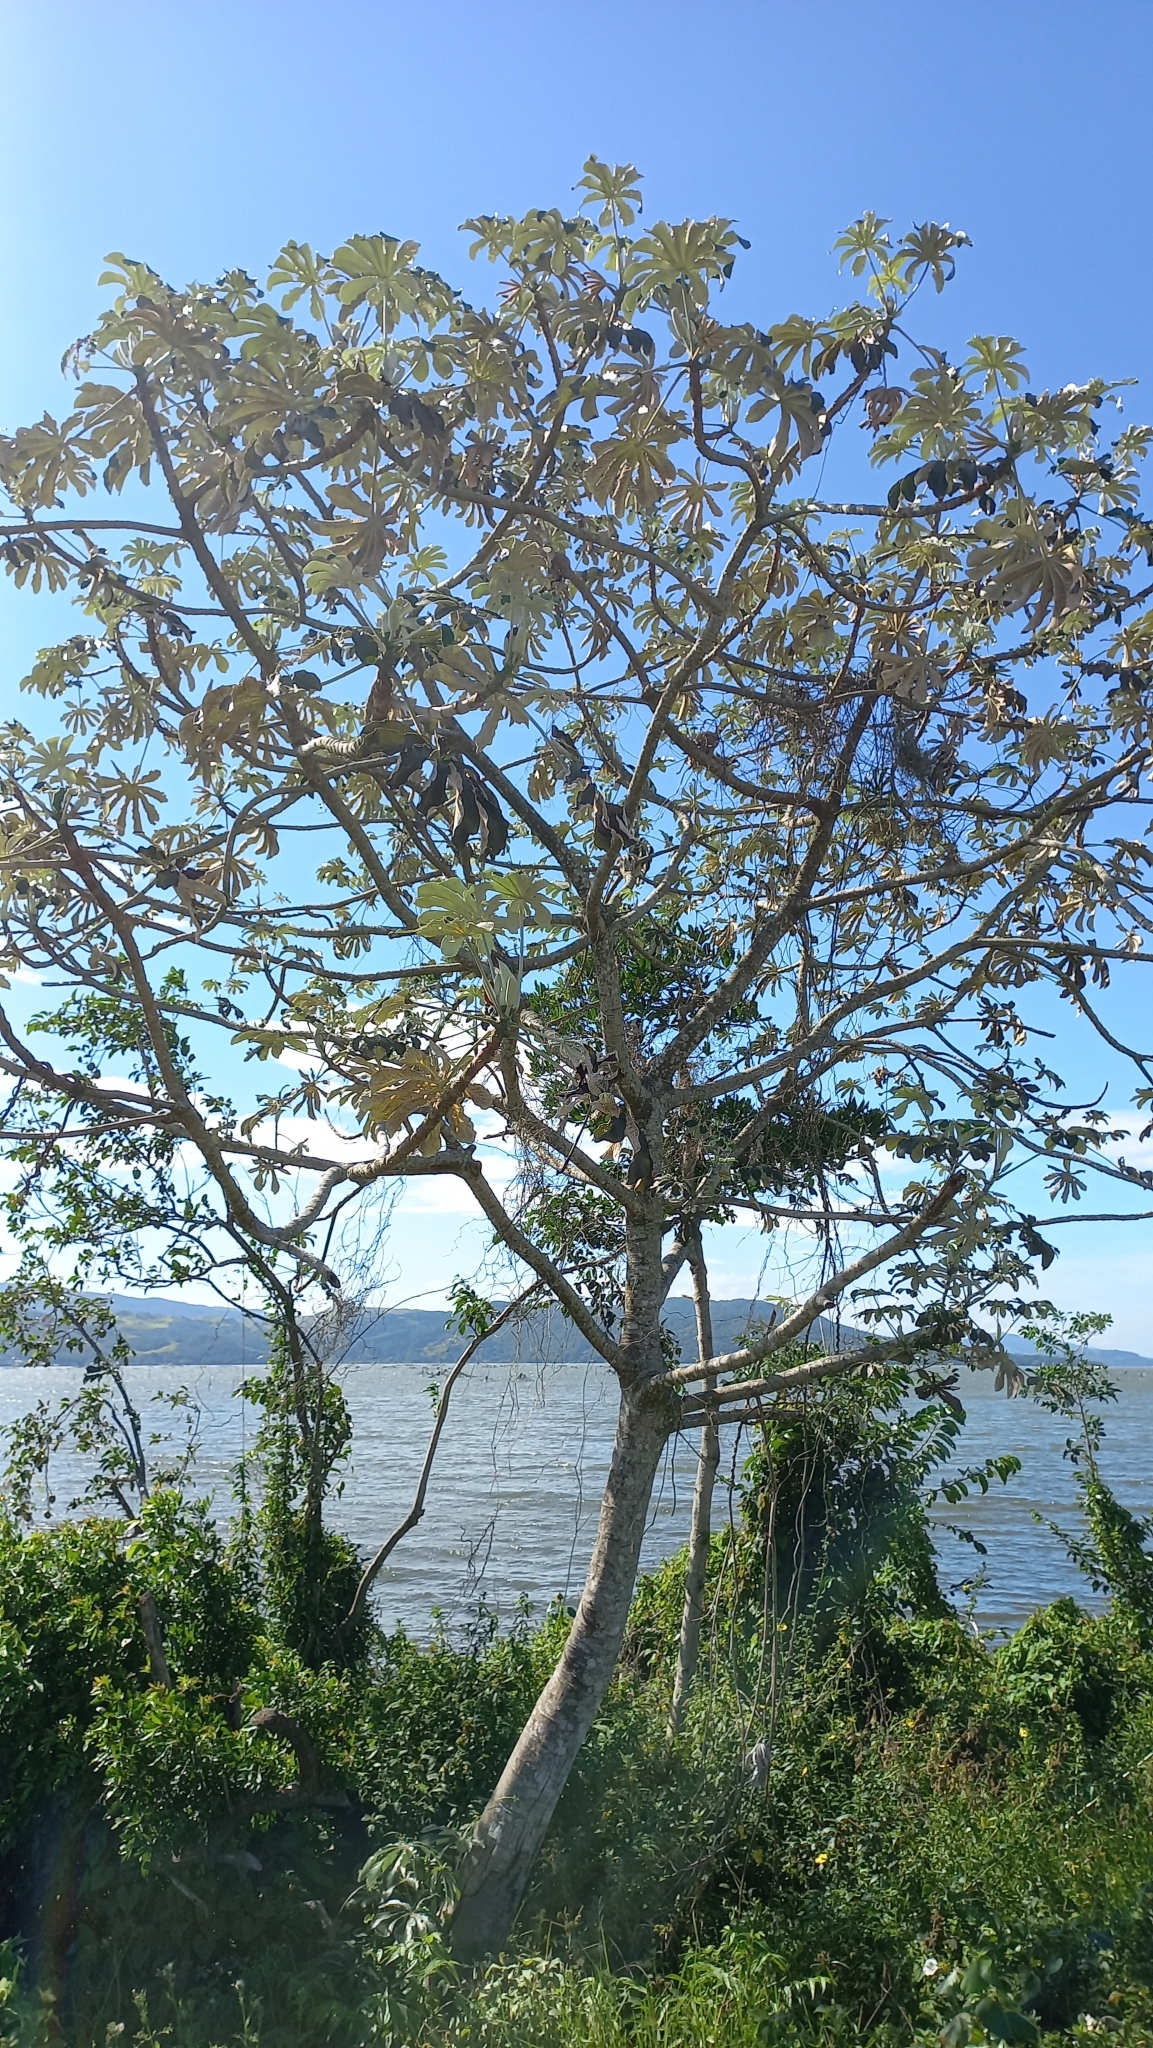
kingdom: Plantae
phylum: Tracheophyta
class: Magnoliopsida
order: Rosales
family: Urticaceae
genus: Cecropia
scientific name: Cecropia pachystachya
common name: Ambay pumpwood
